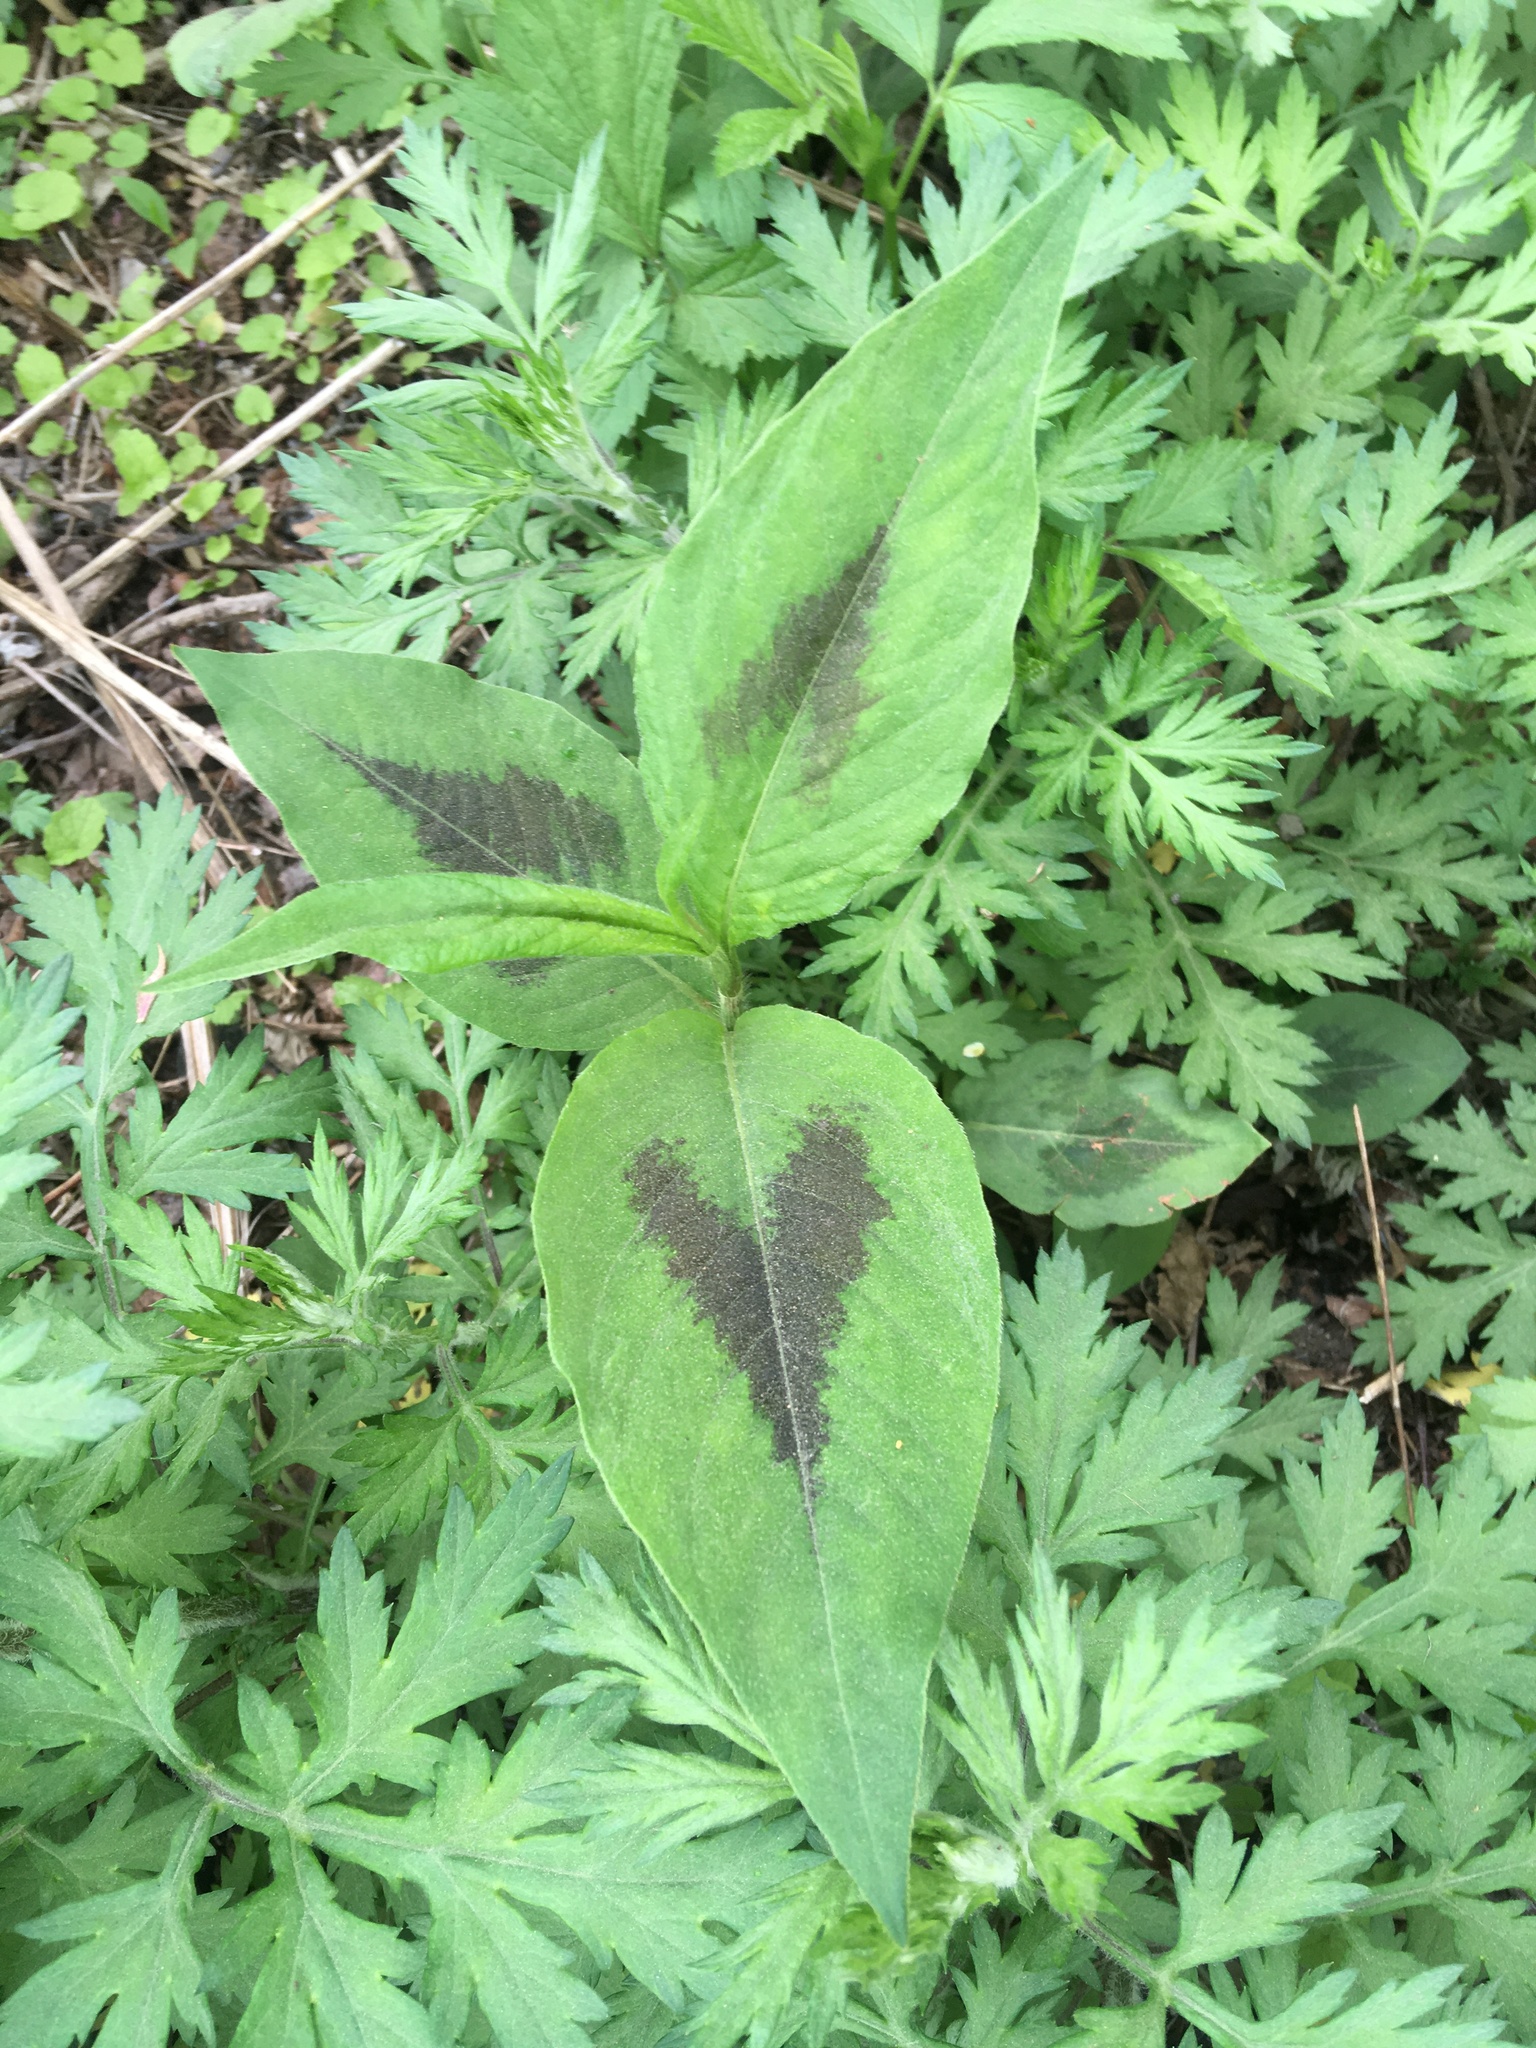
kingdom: Plantae
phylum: Tracheophyta
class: Magnoliopsida
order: Caryophyllales
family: Polygonaceae
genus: Persicaria
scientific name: Persicaria virginiana
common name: Jumpseed
